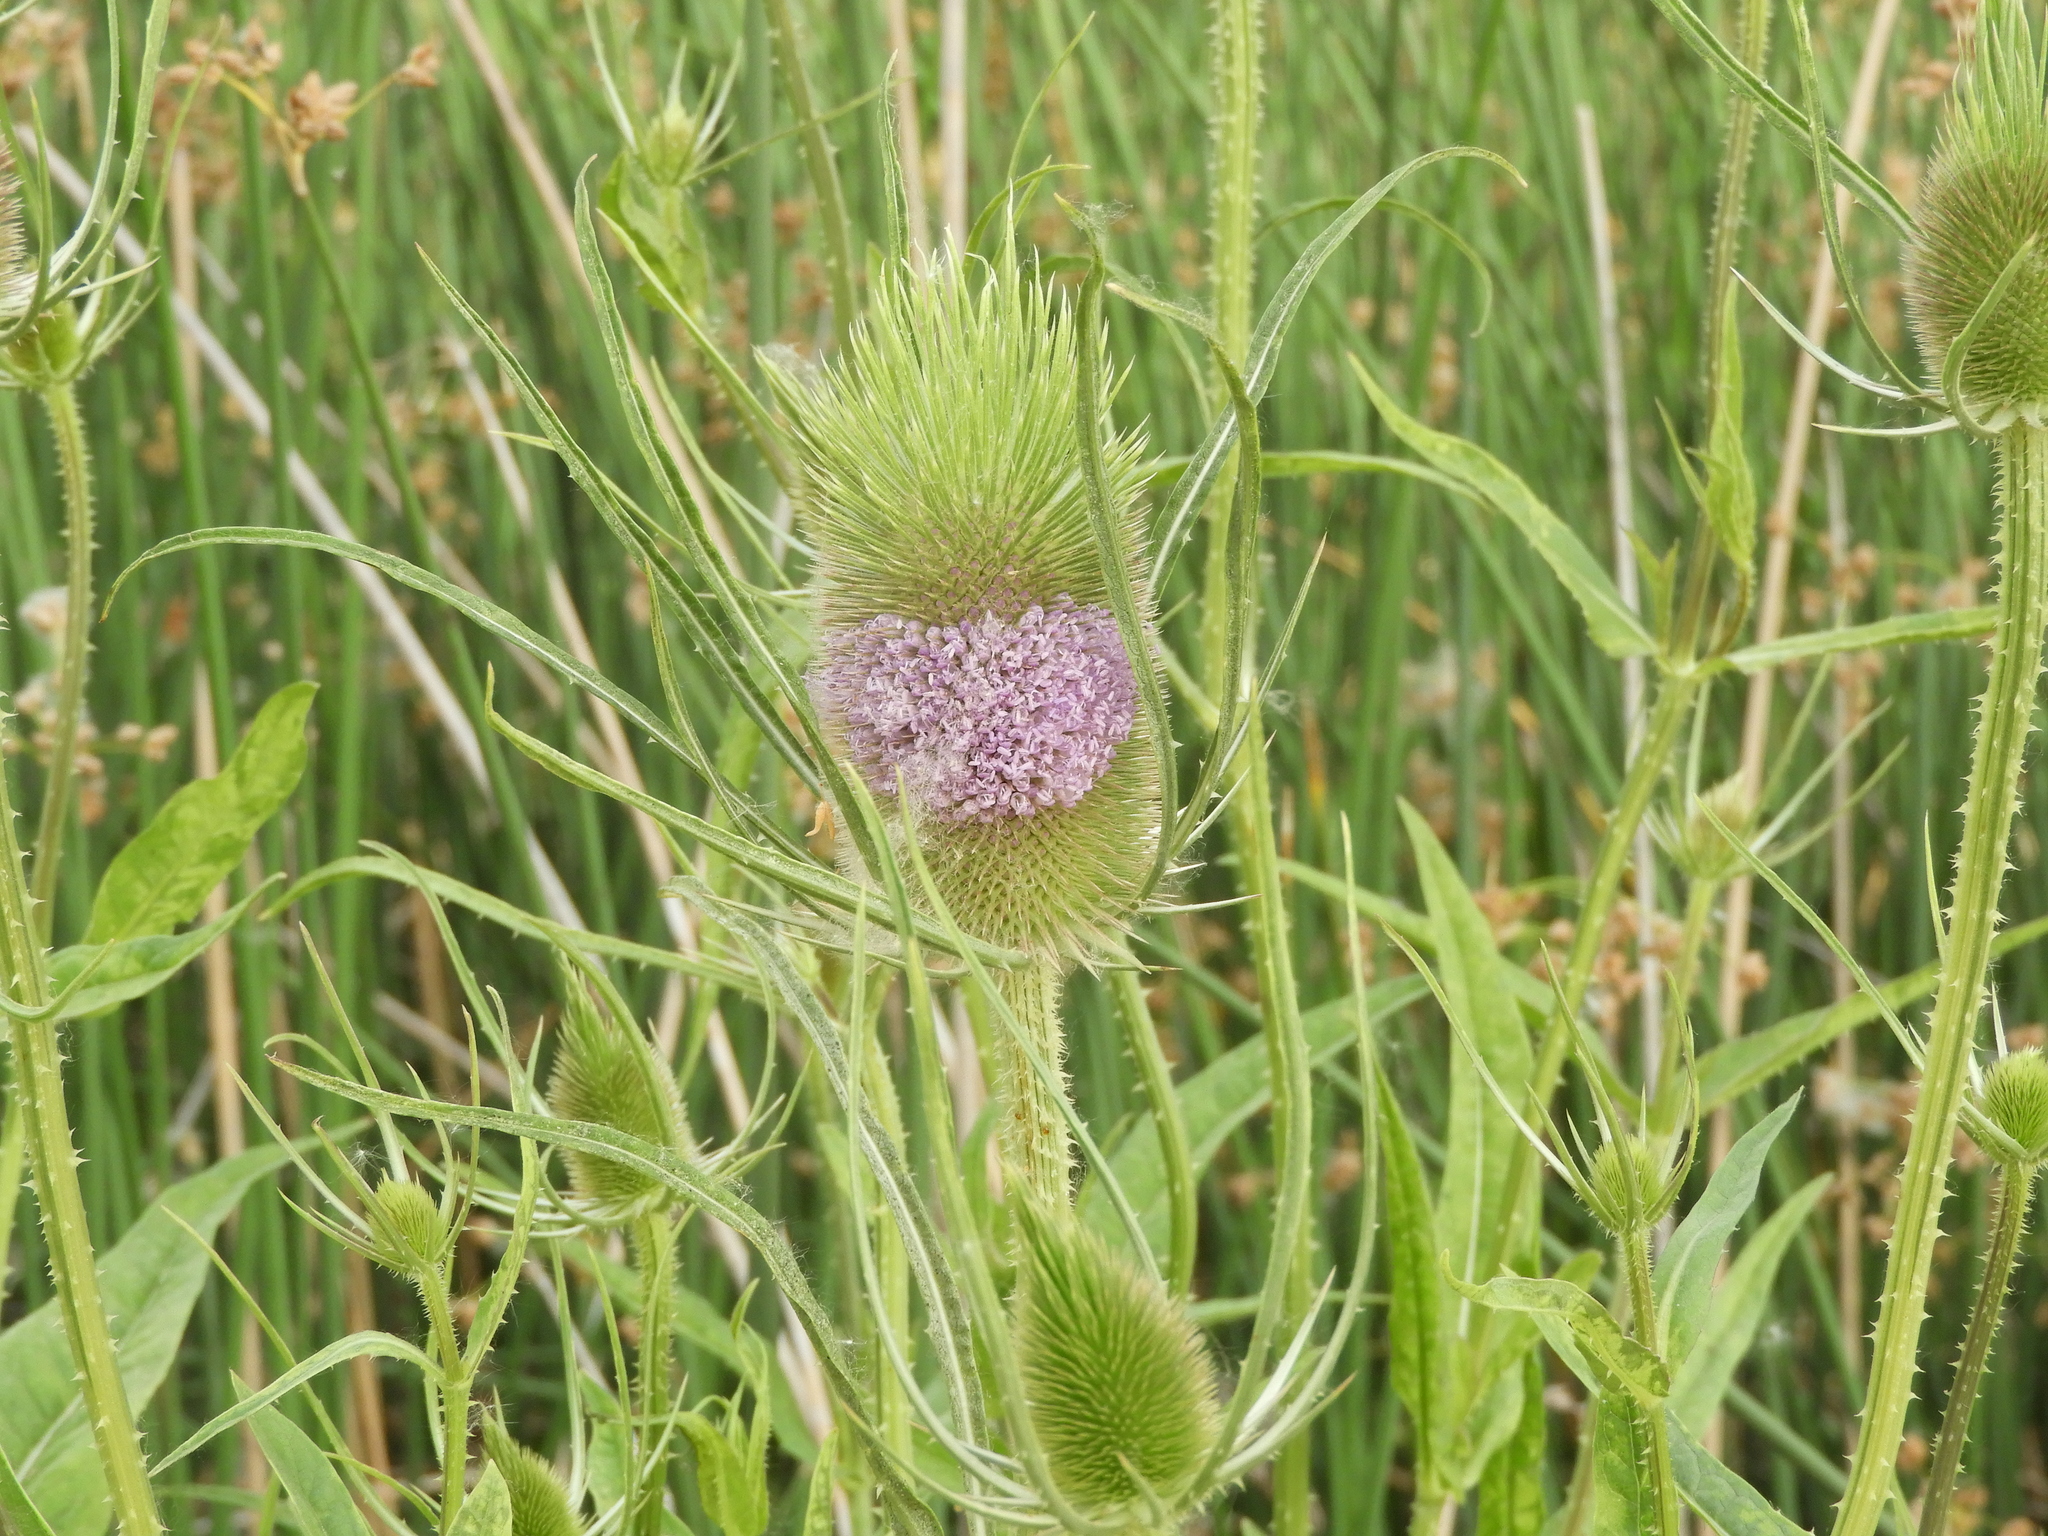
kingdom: Plantae
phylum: Tracheophyta
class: Magnoliopsida
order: Dipsacales
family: Caprifoliaceae
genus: Dipsacus
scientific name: Dipsacus fullonum
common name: Teasel
